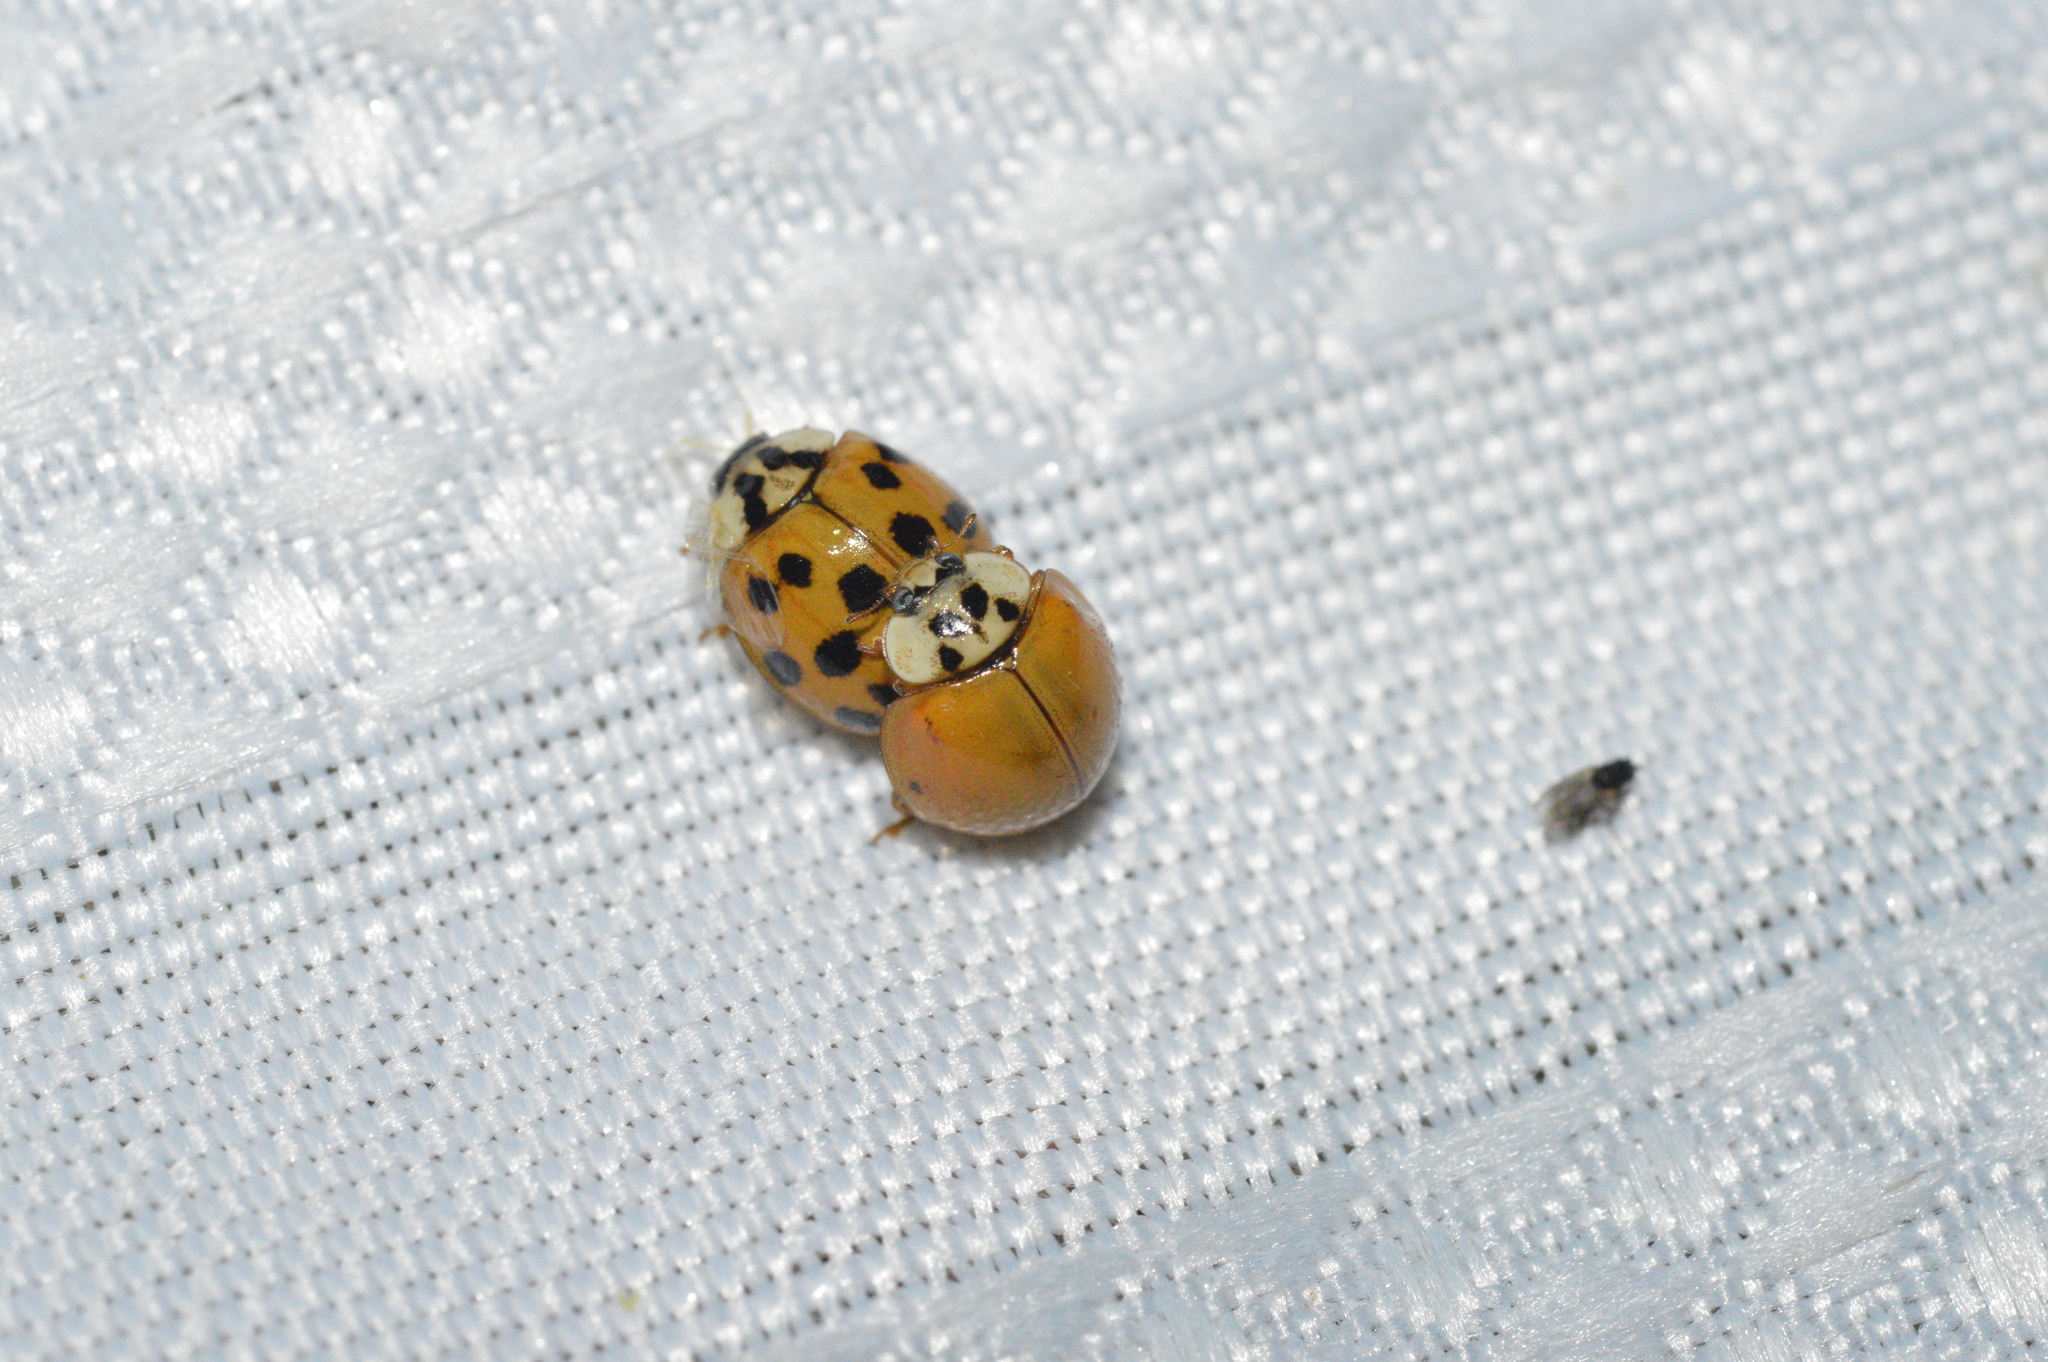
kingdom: Animalia
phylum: Arthropoda
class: Insecta
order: Coleoptera
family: Coccinellidae
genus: Harmonia
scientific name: Harmonia axyridis
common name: Harlequin ladybird
